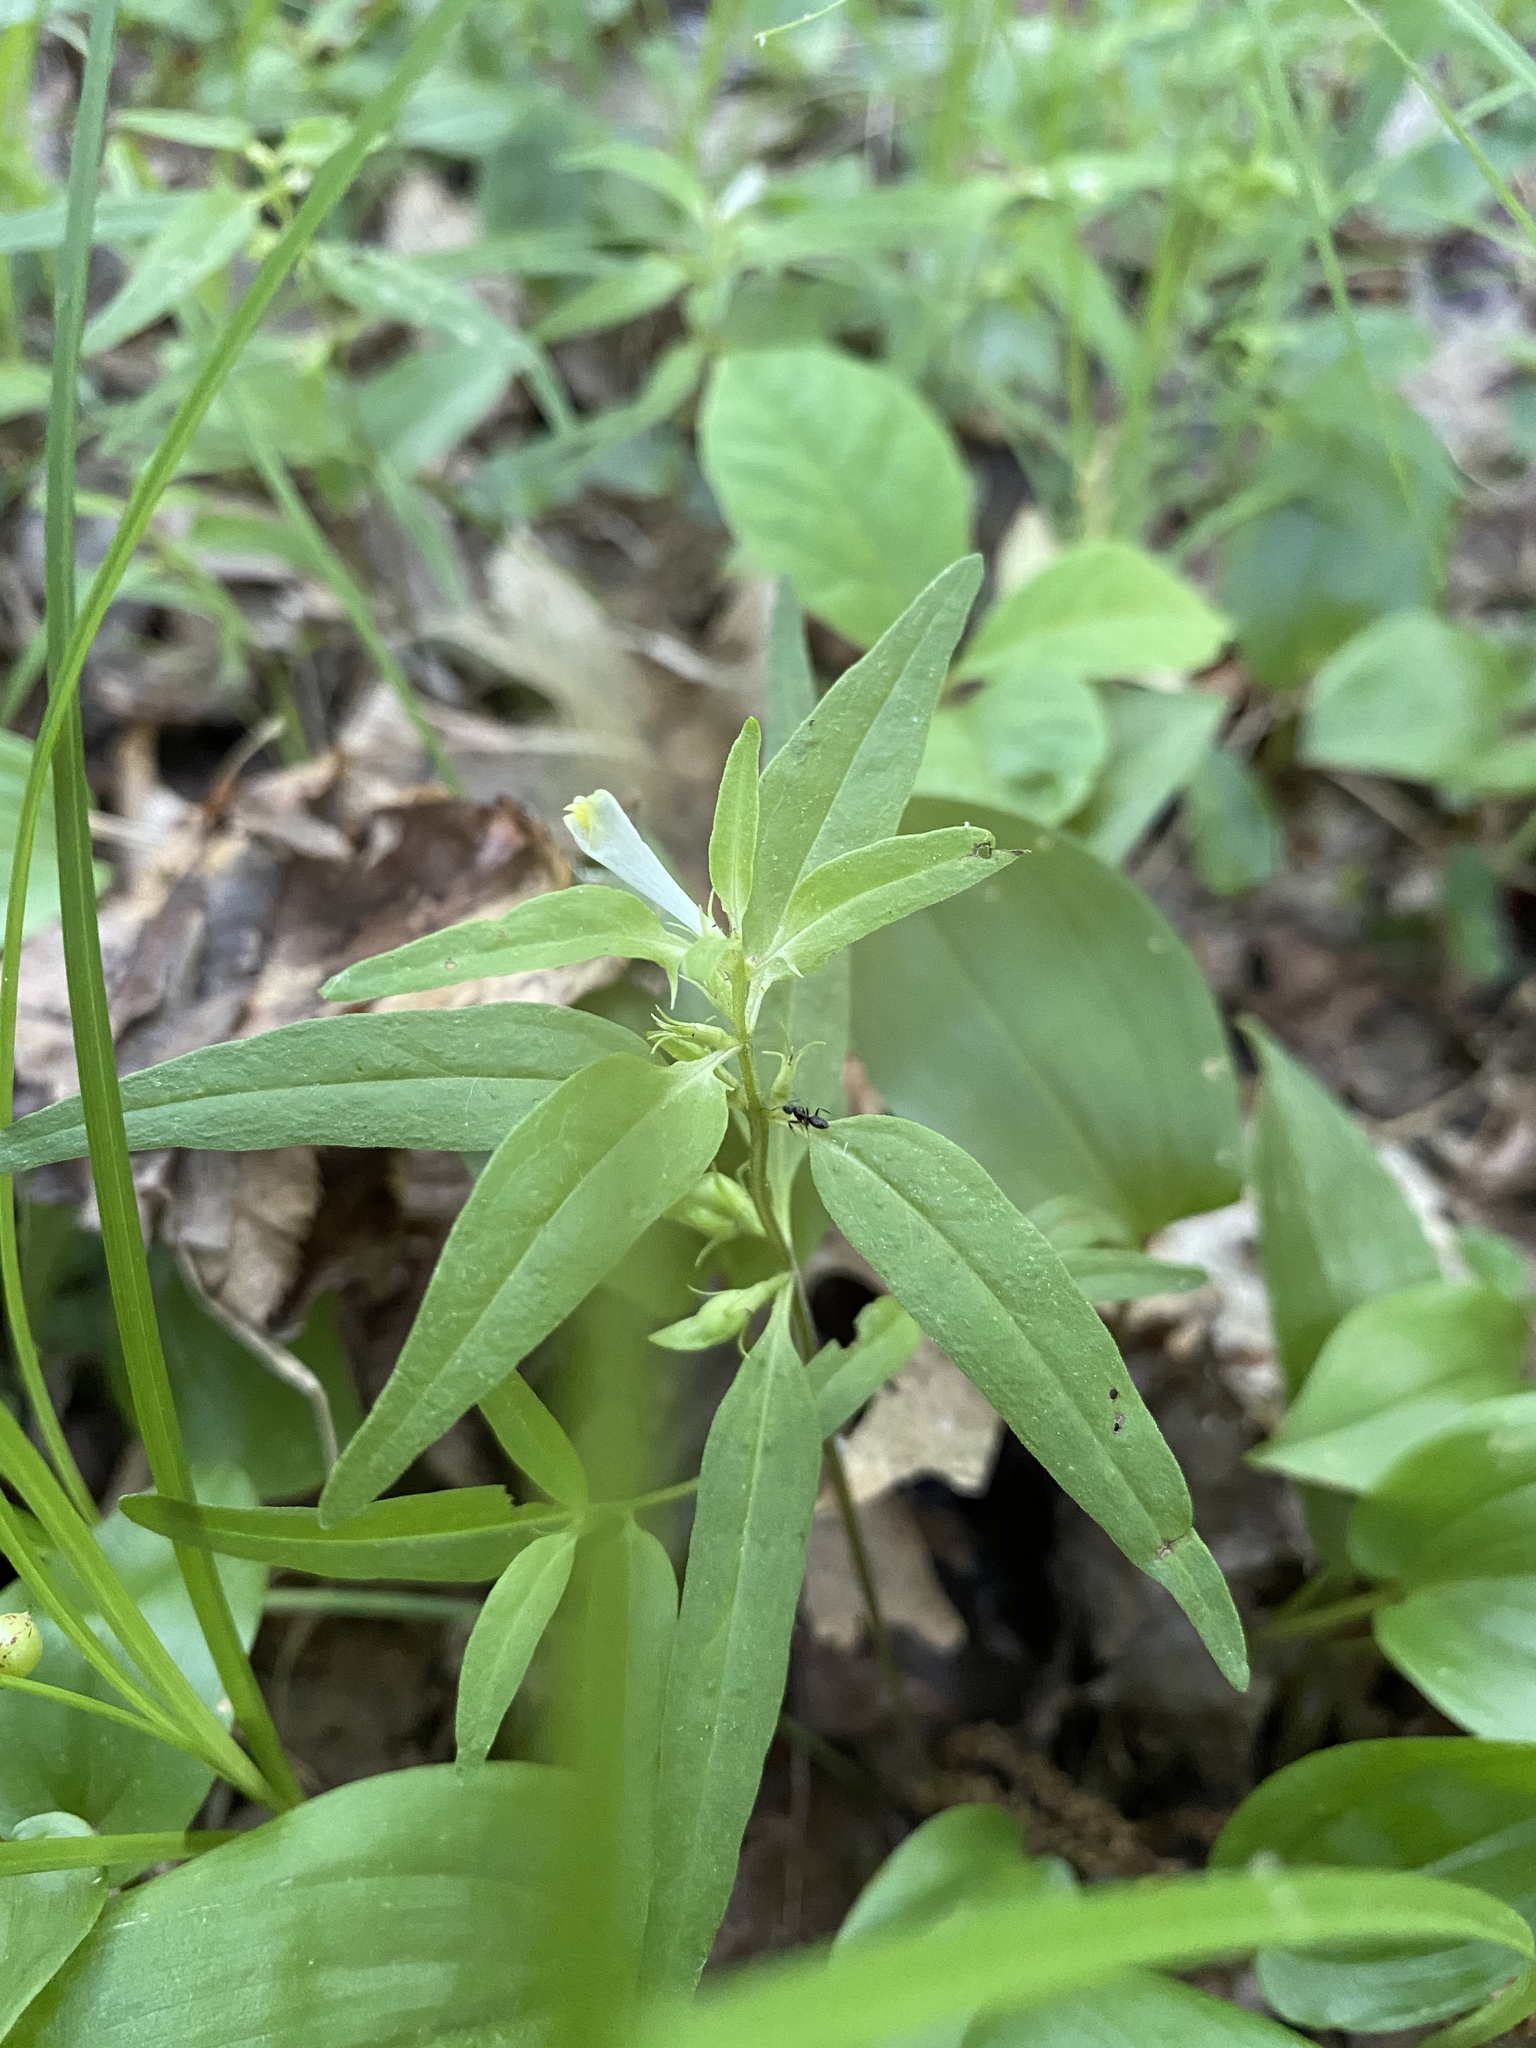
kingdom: Plantae
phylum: Tracheophyta
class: Magnoliopsida
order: Lamiales
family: Orobanchaceae
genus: Melampyrum
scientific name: Melampyrum lineare
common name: American cow-wheat
